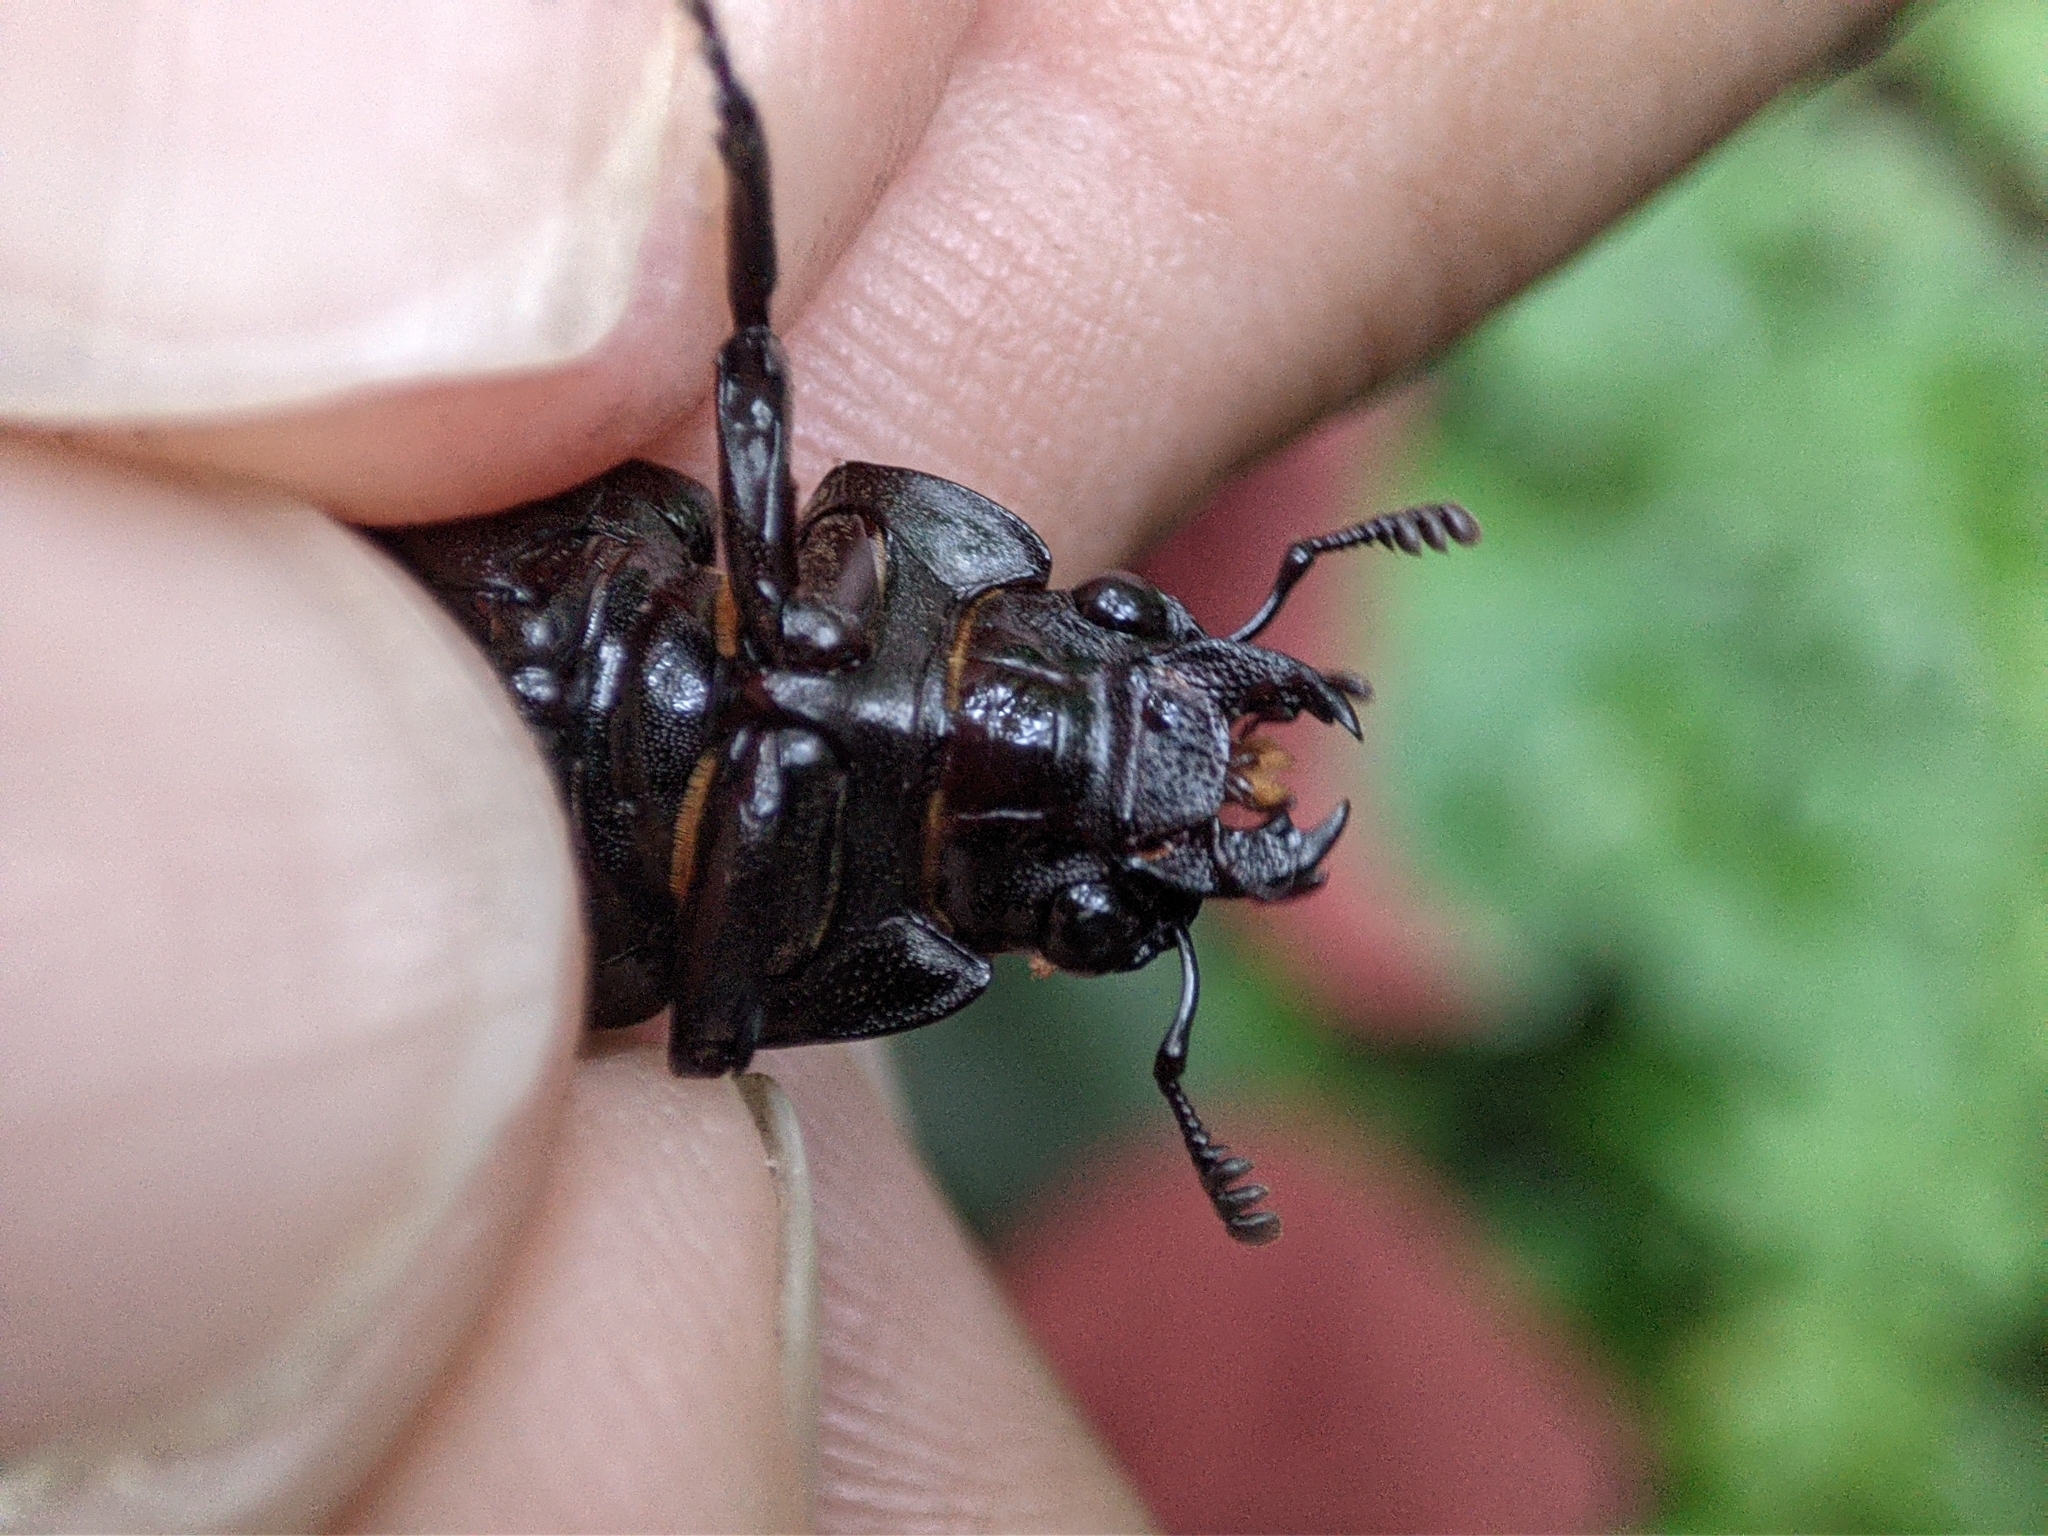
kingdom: Animalia
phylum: Arthropoda
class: Insecta
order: Coleoptera
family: Lucanidae
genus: Prismognathus
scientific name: Prismognathus dauricus
